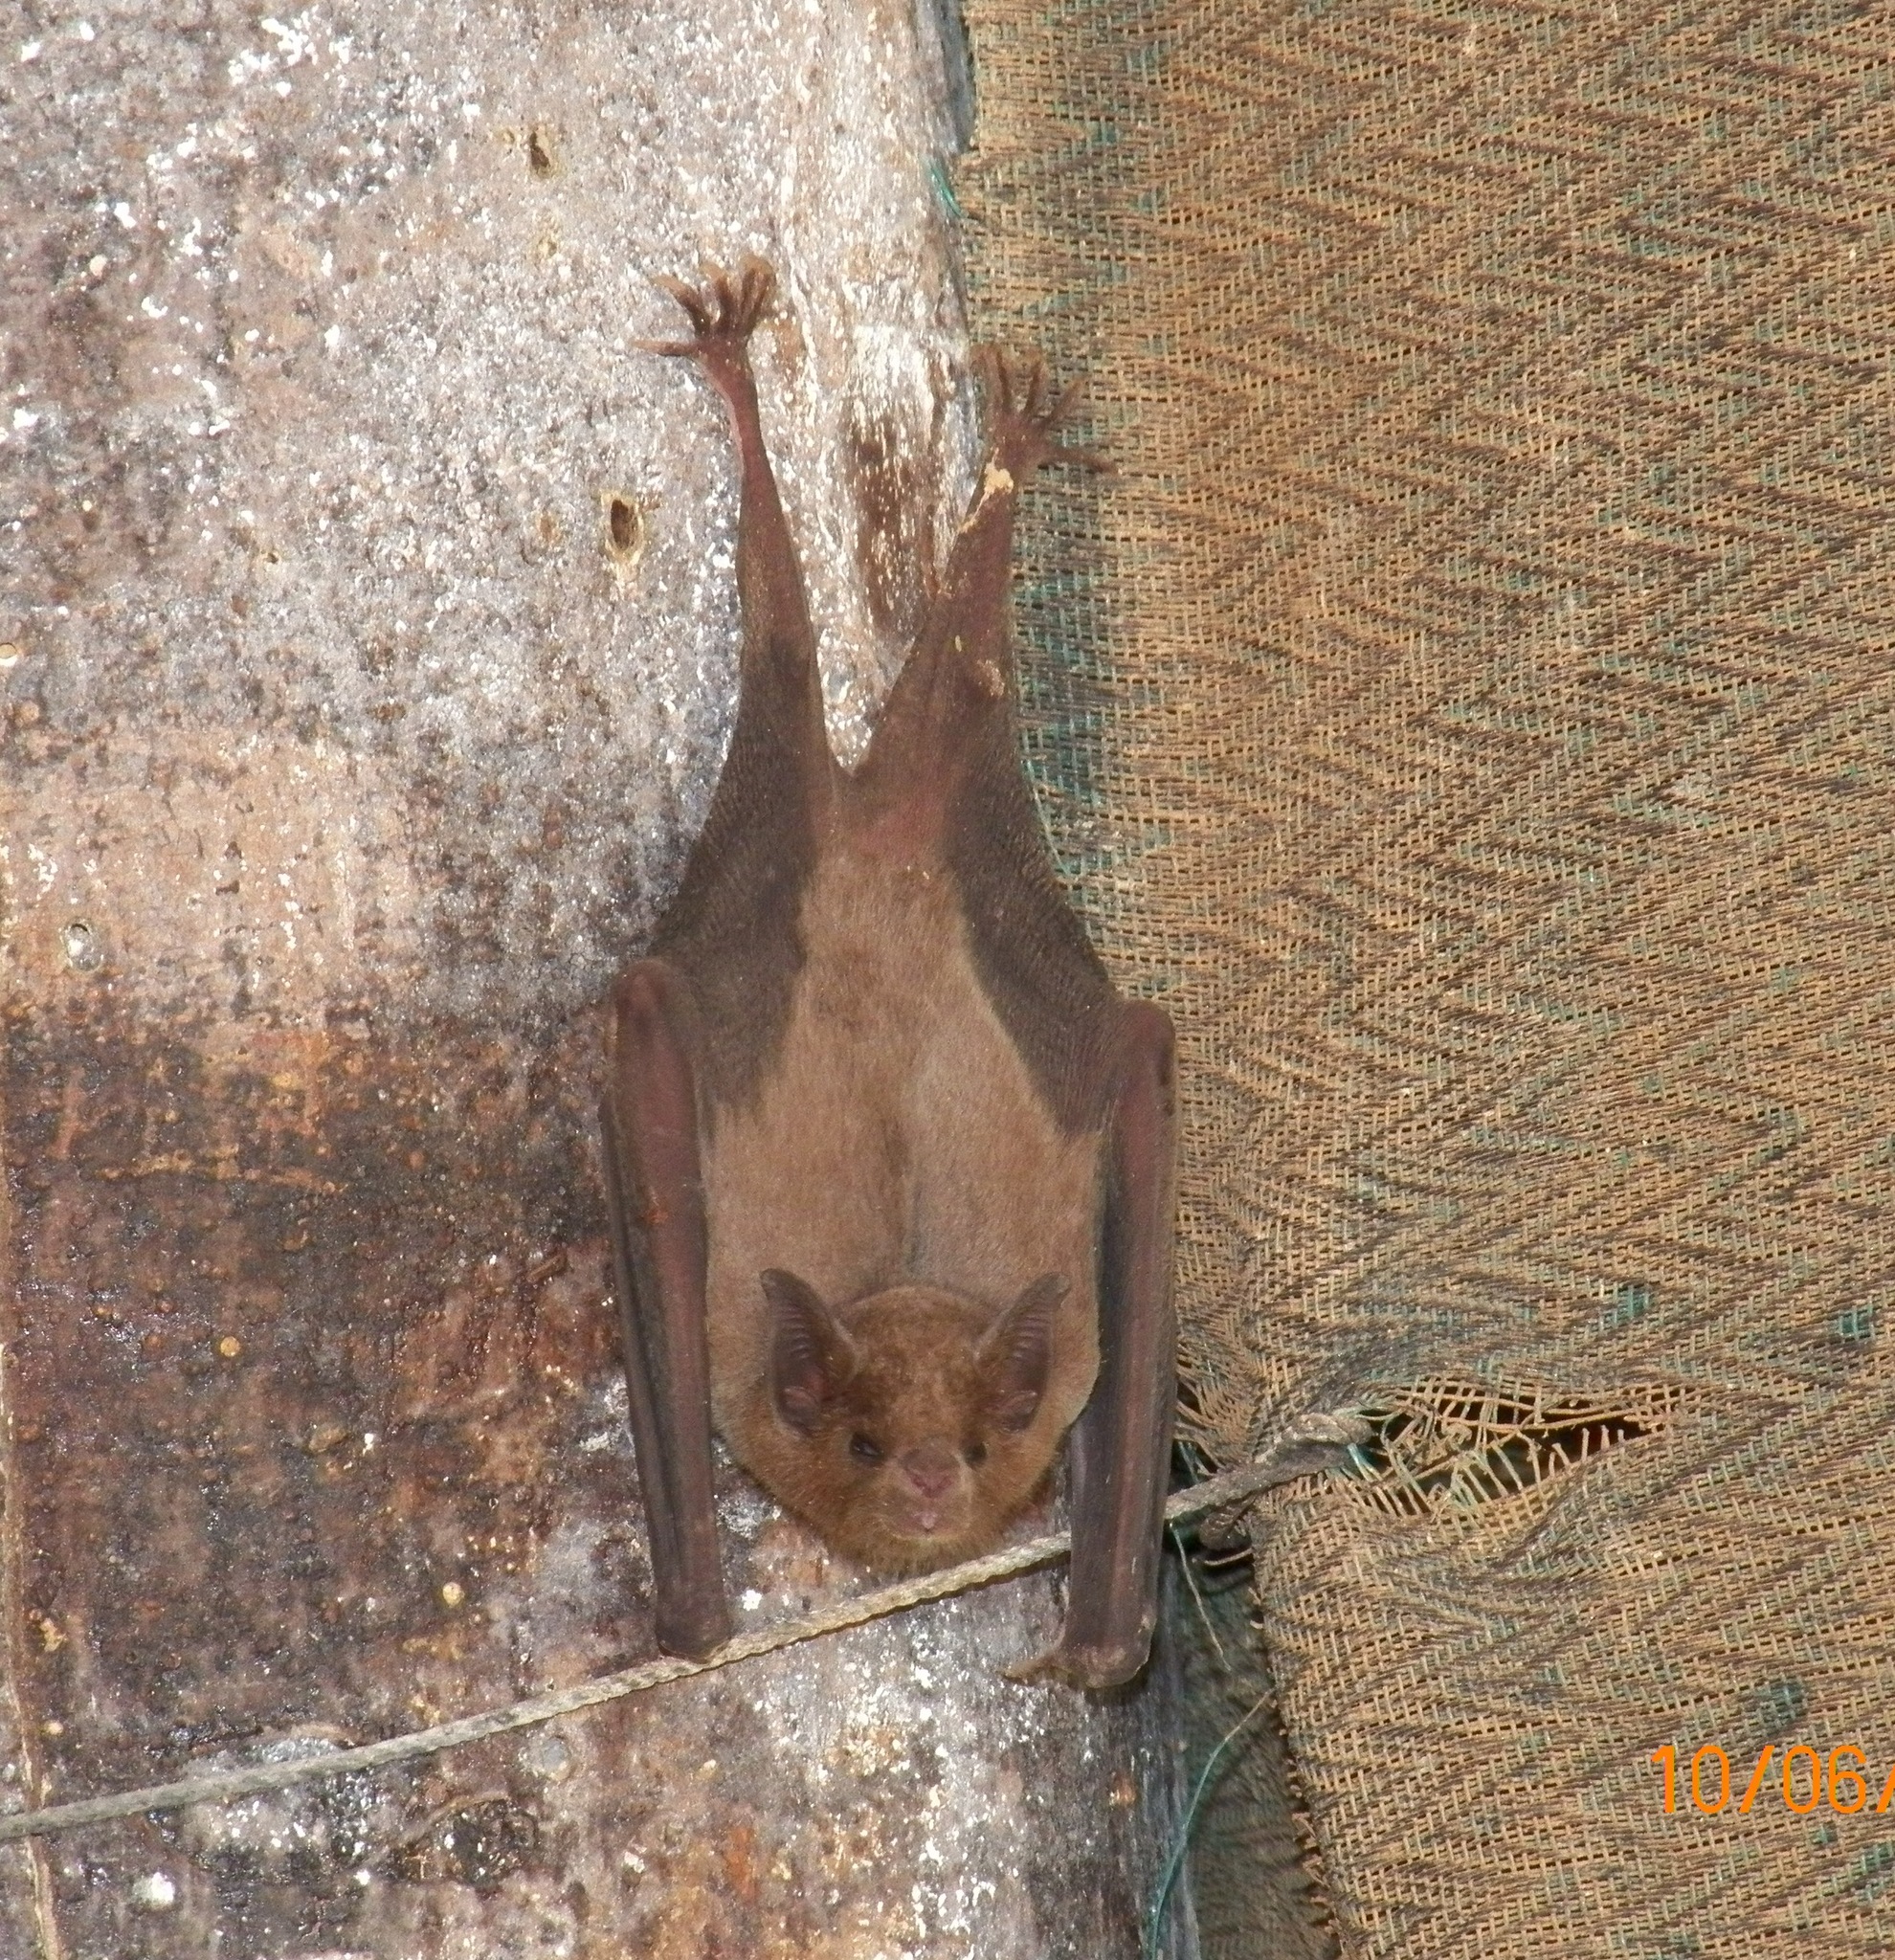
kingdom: Animalia
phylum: Chordata
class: Mammalia
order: Chiroptera
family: Phyllostomidae
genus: Leptonycteris
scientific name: Leptonycteris yerbabuenae
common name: Lesser long-nosed bat
